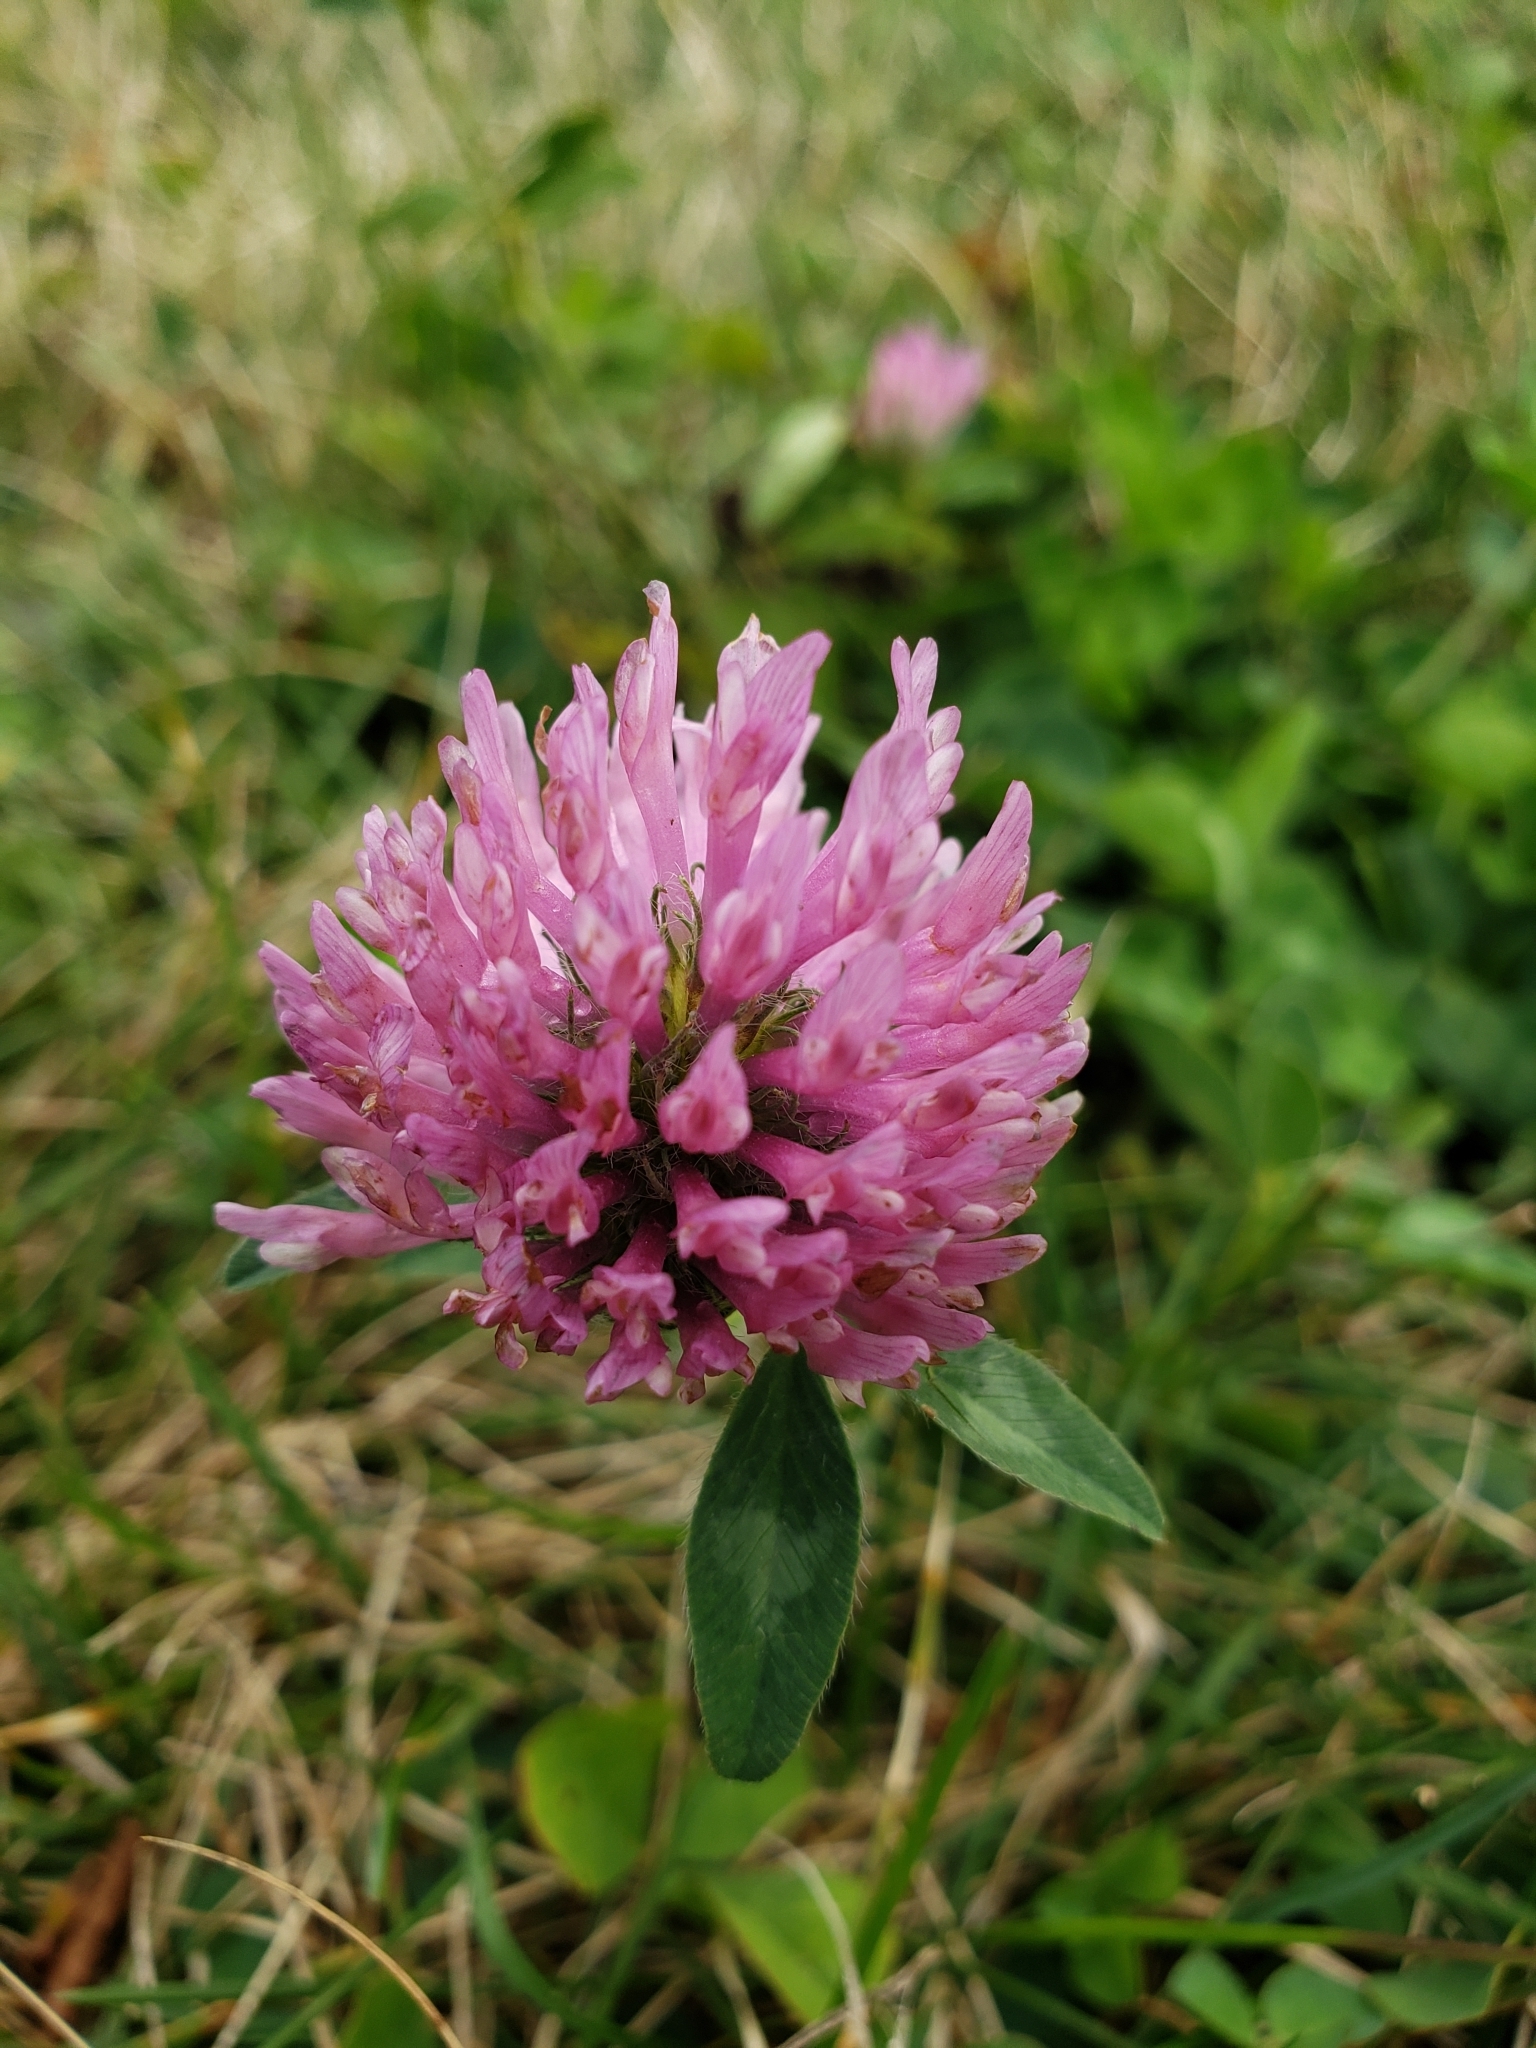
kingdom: Plantae
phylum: Tracheophyta
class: Magnoliopsida
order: Fabales
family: Fabaceae
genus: Trifolium
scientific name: Trifolium pratense
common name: Red clover
